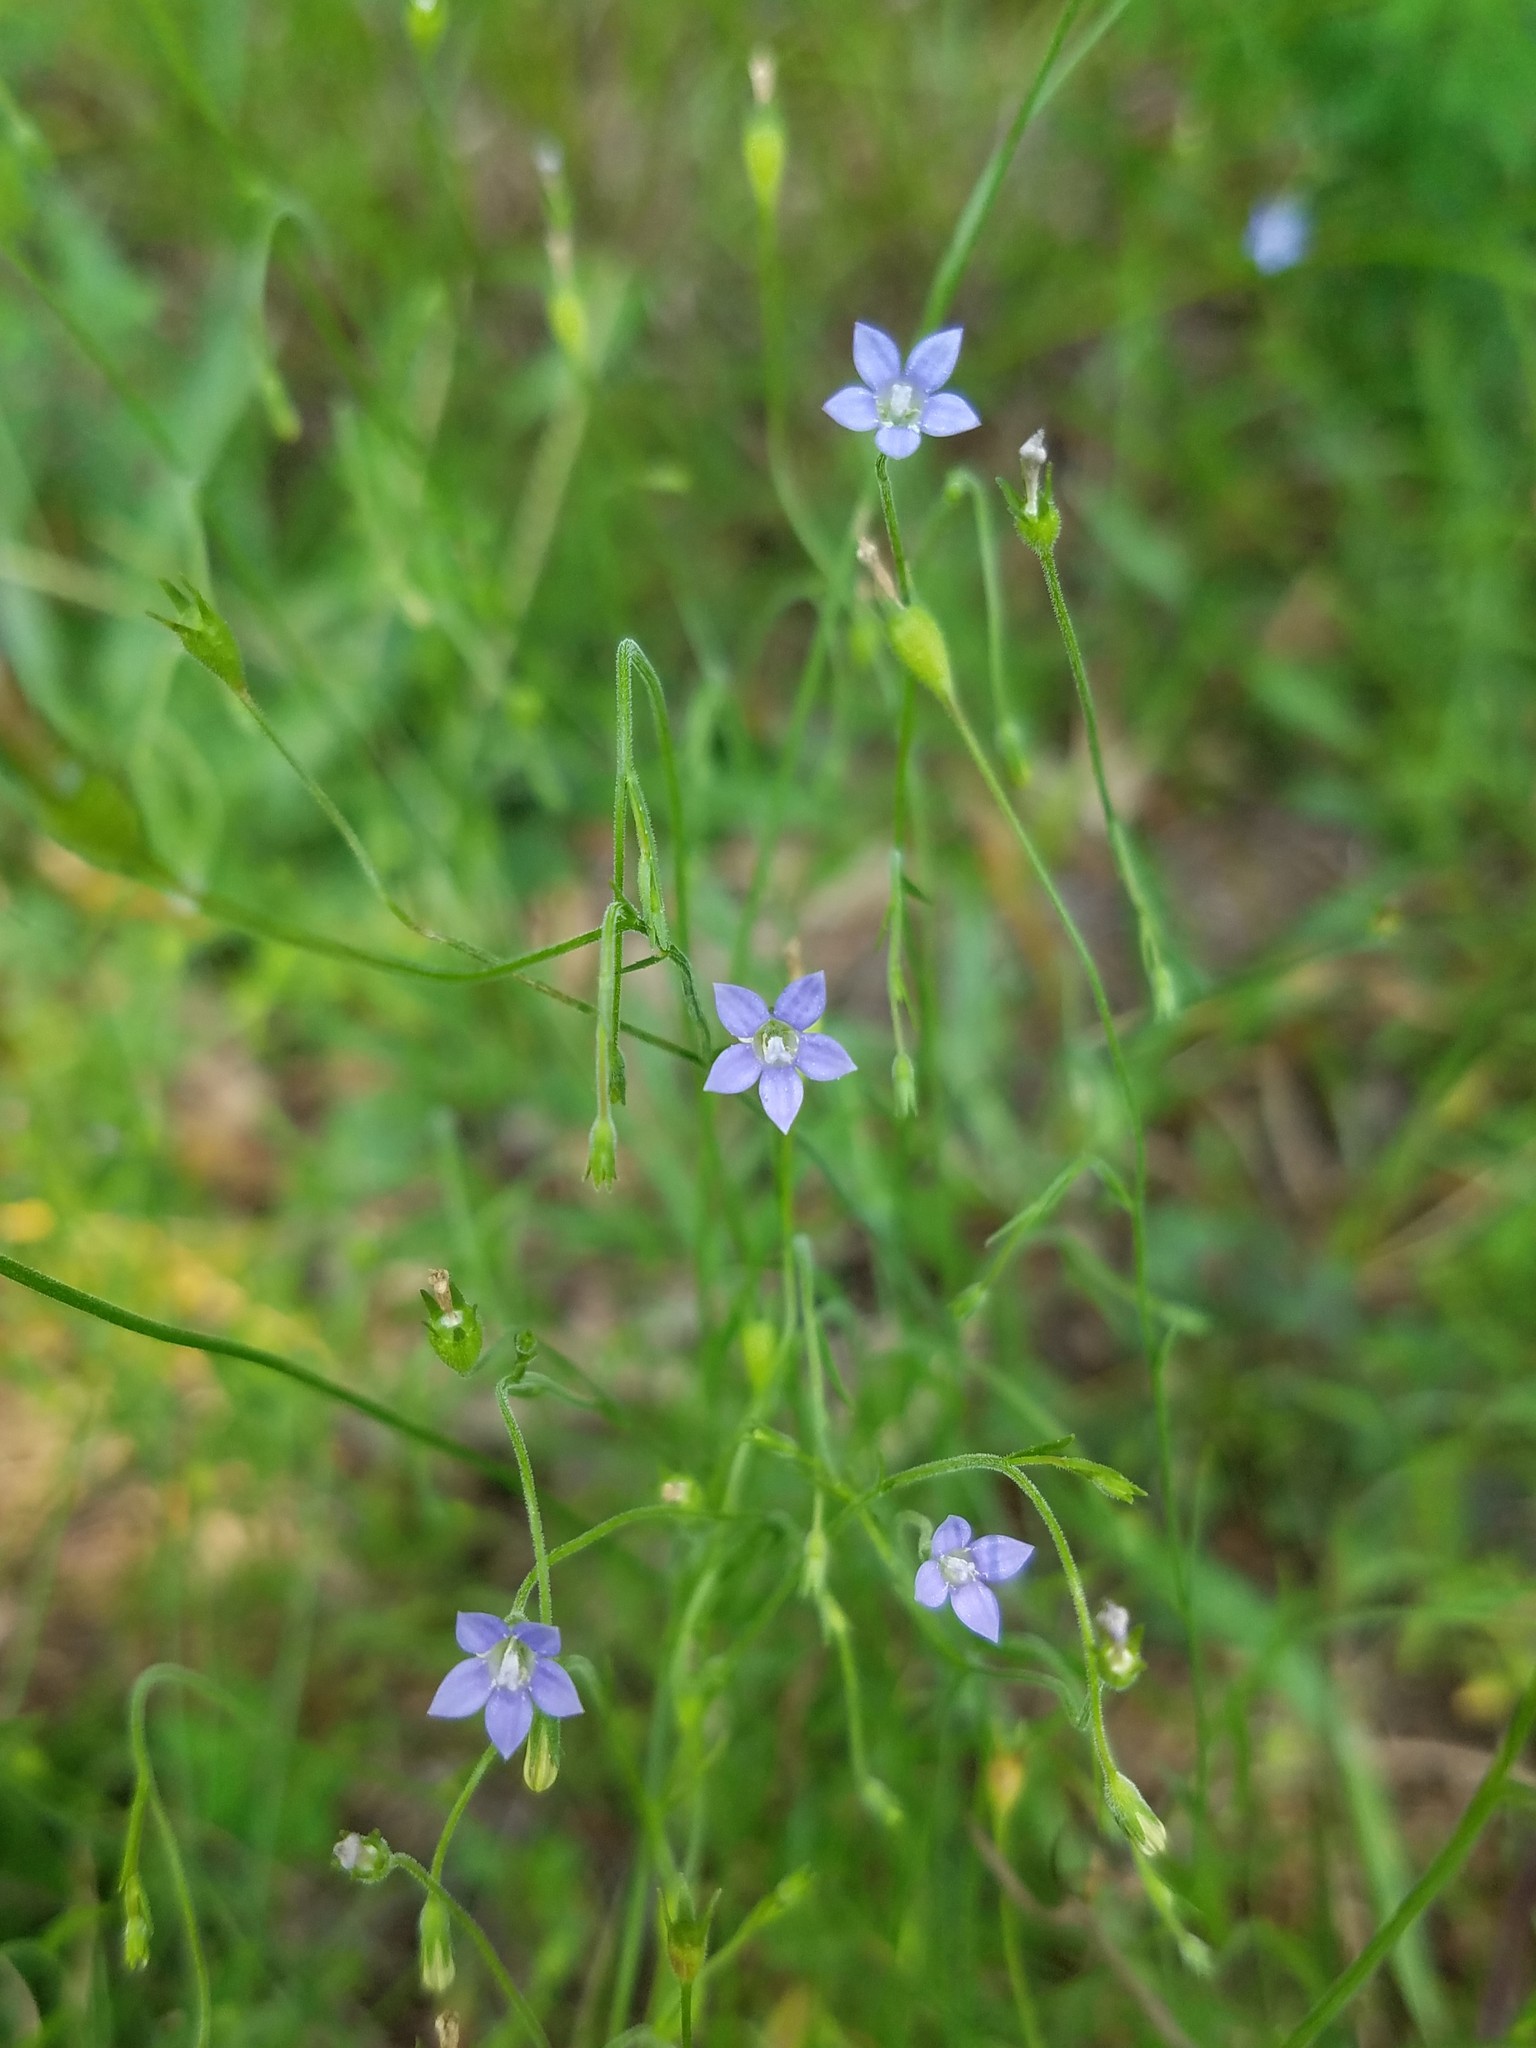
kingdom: Plantae
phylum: Tracheophyta
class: Magnoliopsida
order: Asterales
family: Campanulaceae
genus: Wahlenbergia
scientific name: Wahlenbergia marginata
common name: Southern rockbell
